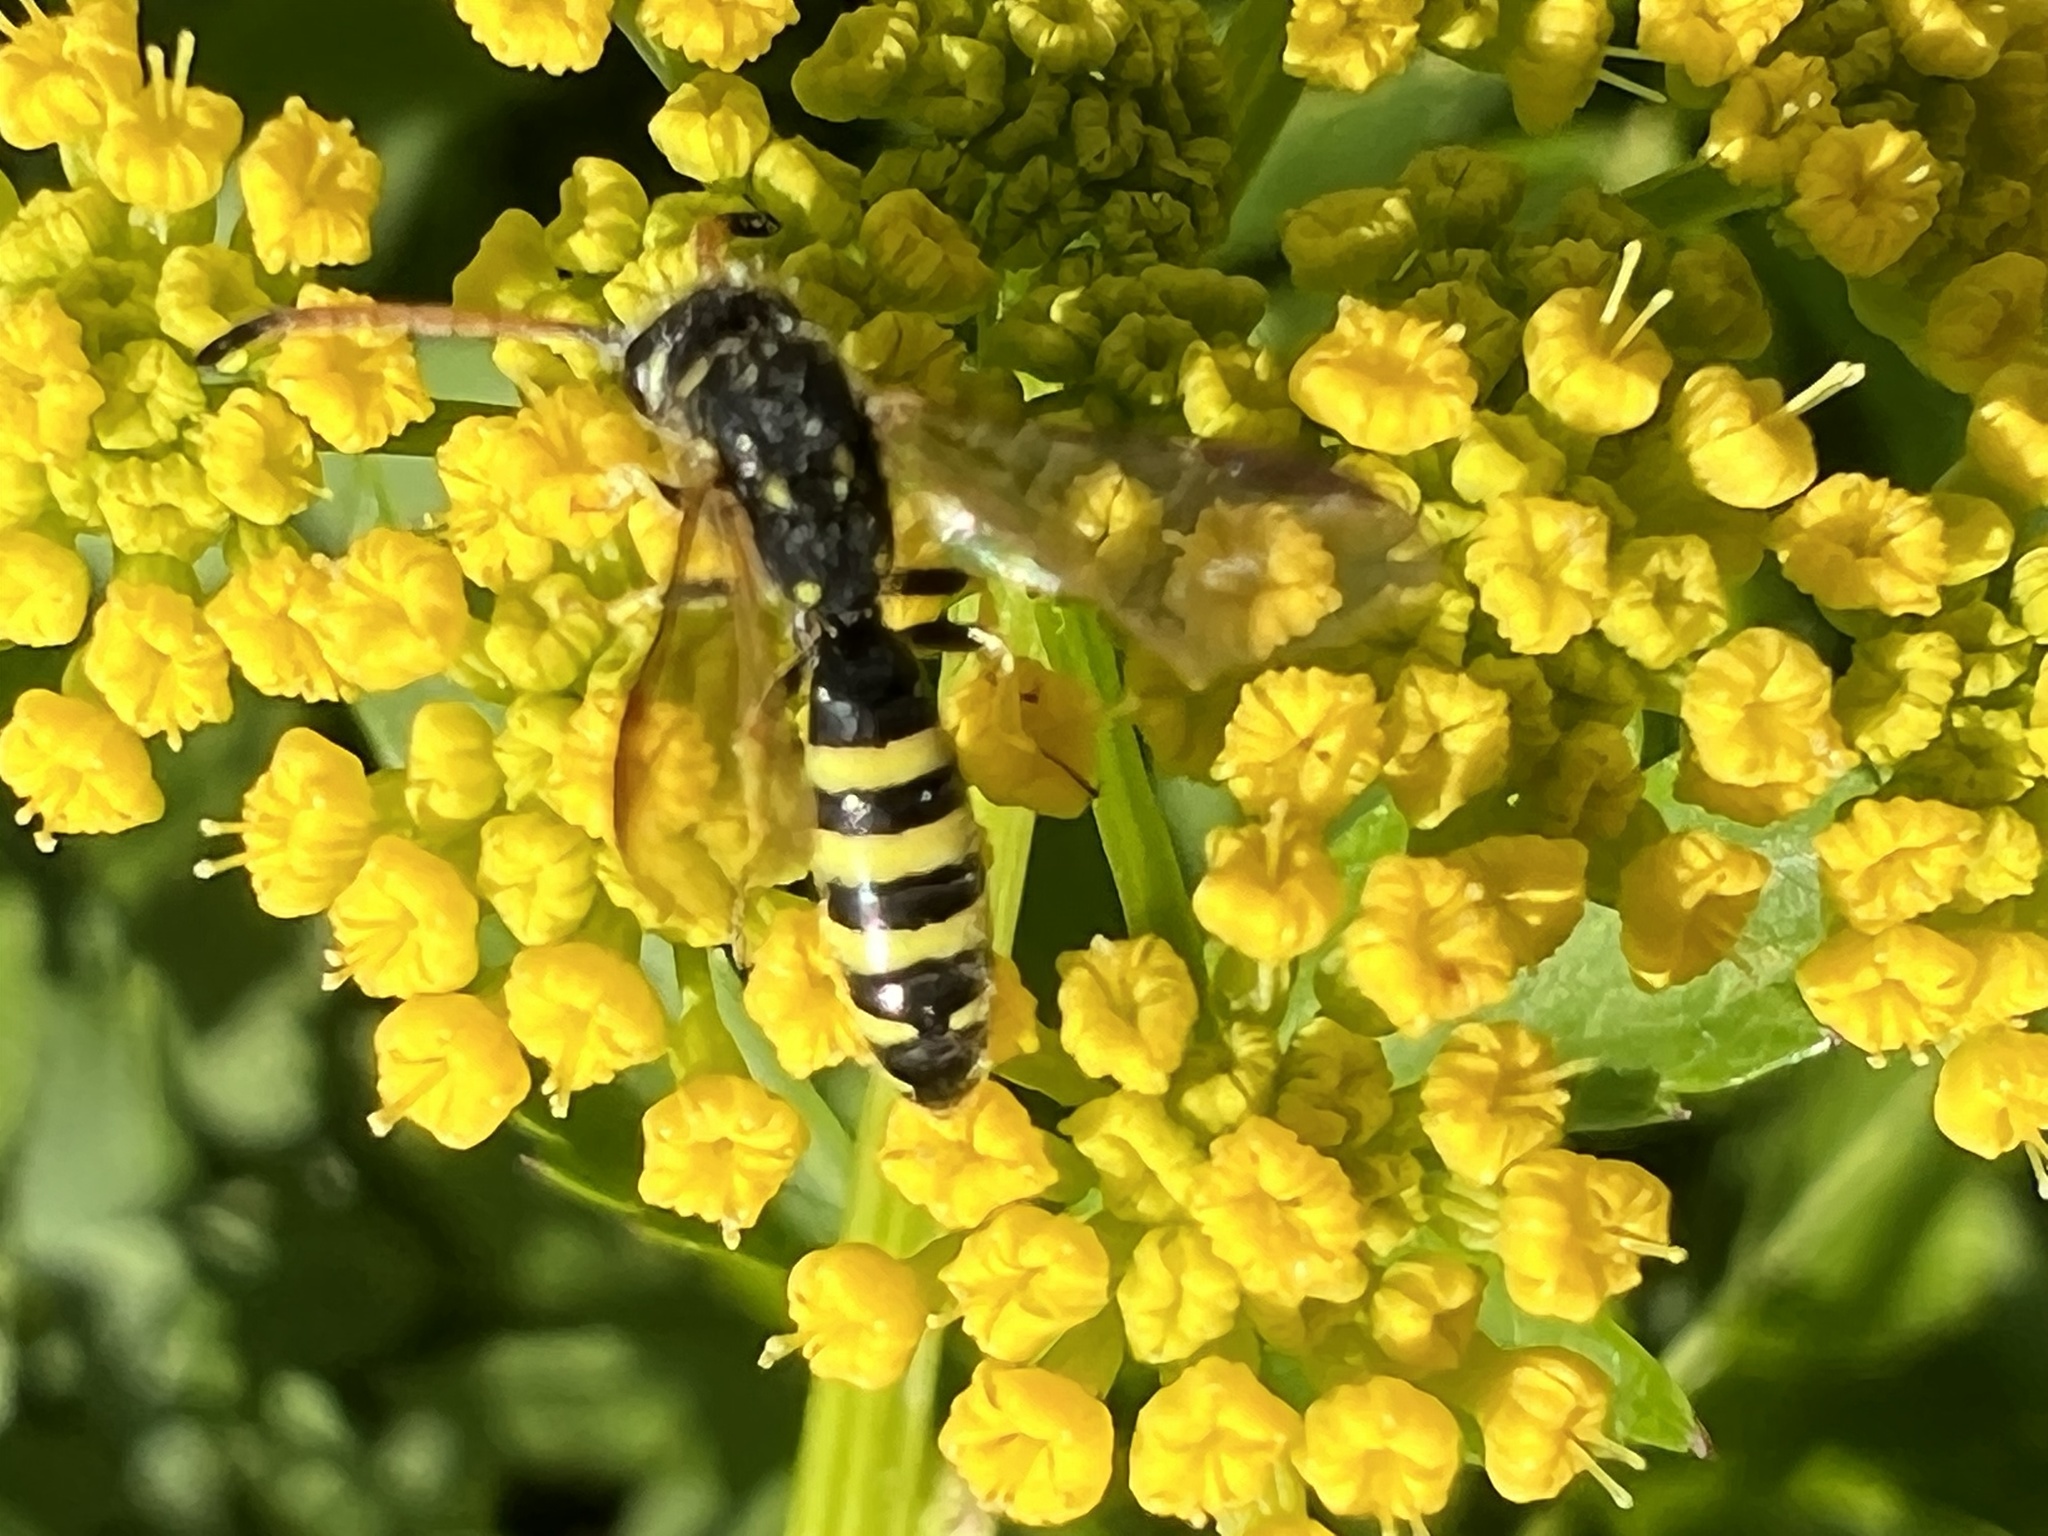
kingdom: Animalia
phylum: Arthropoda
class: Insecta
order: Hymenoptera
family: Sapygidae
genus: Sapyga
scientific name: Sapyga centrata
